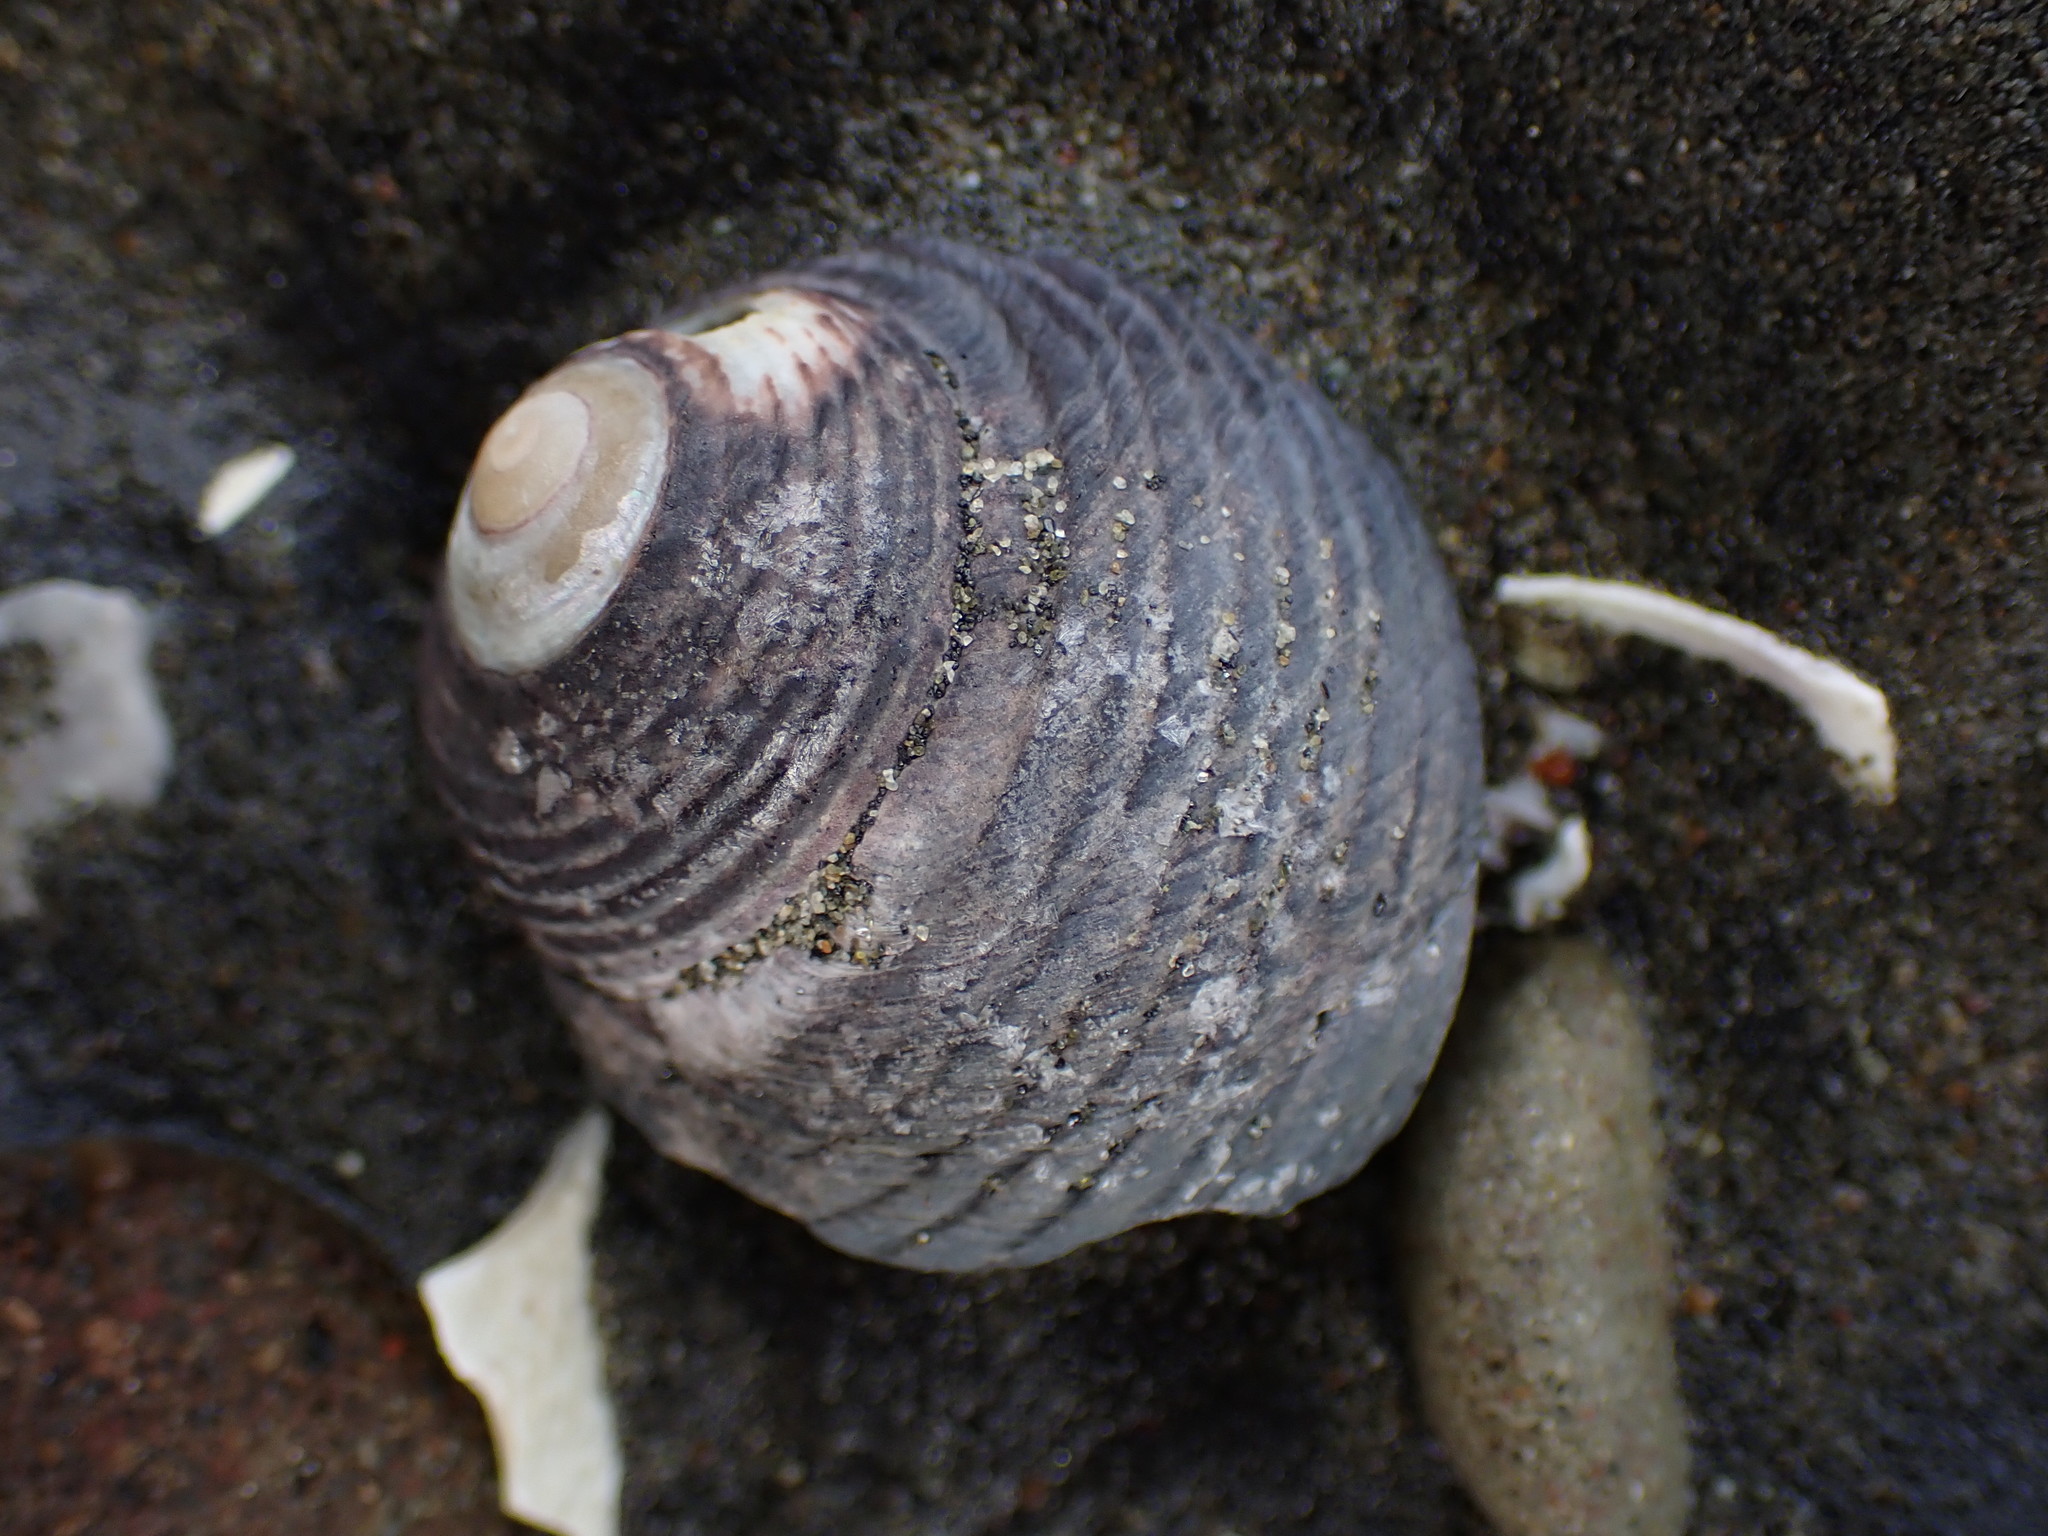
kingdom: Animalia
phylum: Mollusca
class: Gastropoda
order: Trochida
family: Trochidae
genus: Diloma
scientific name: Diloma zelandicum
